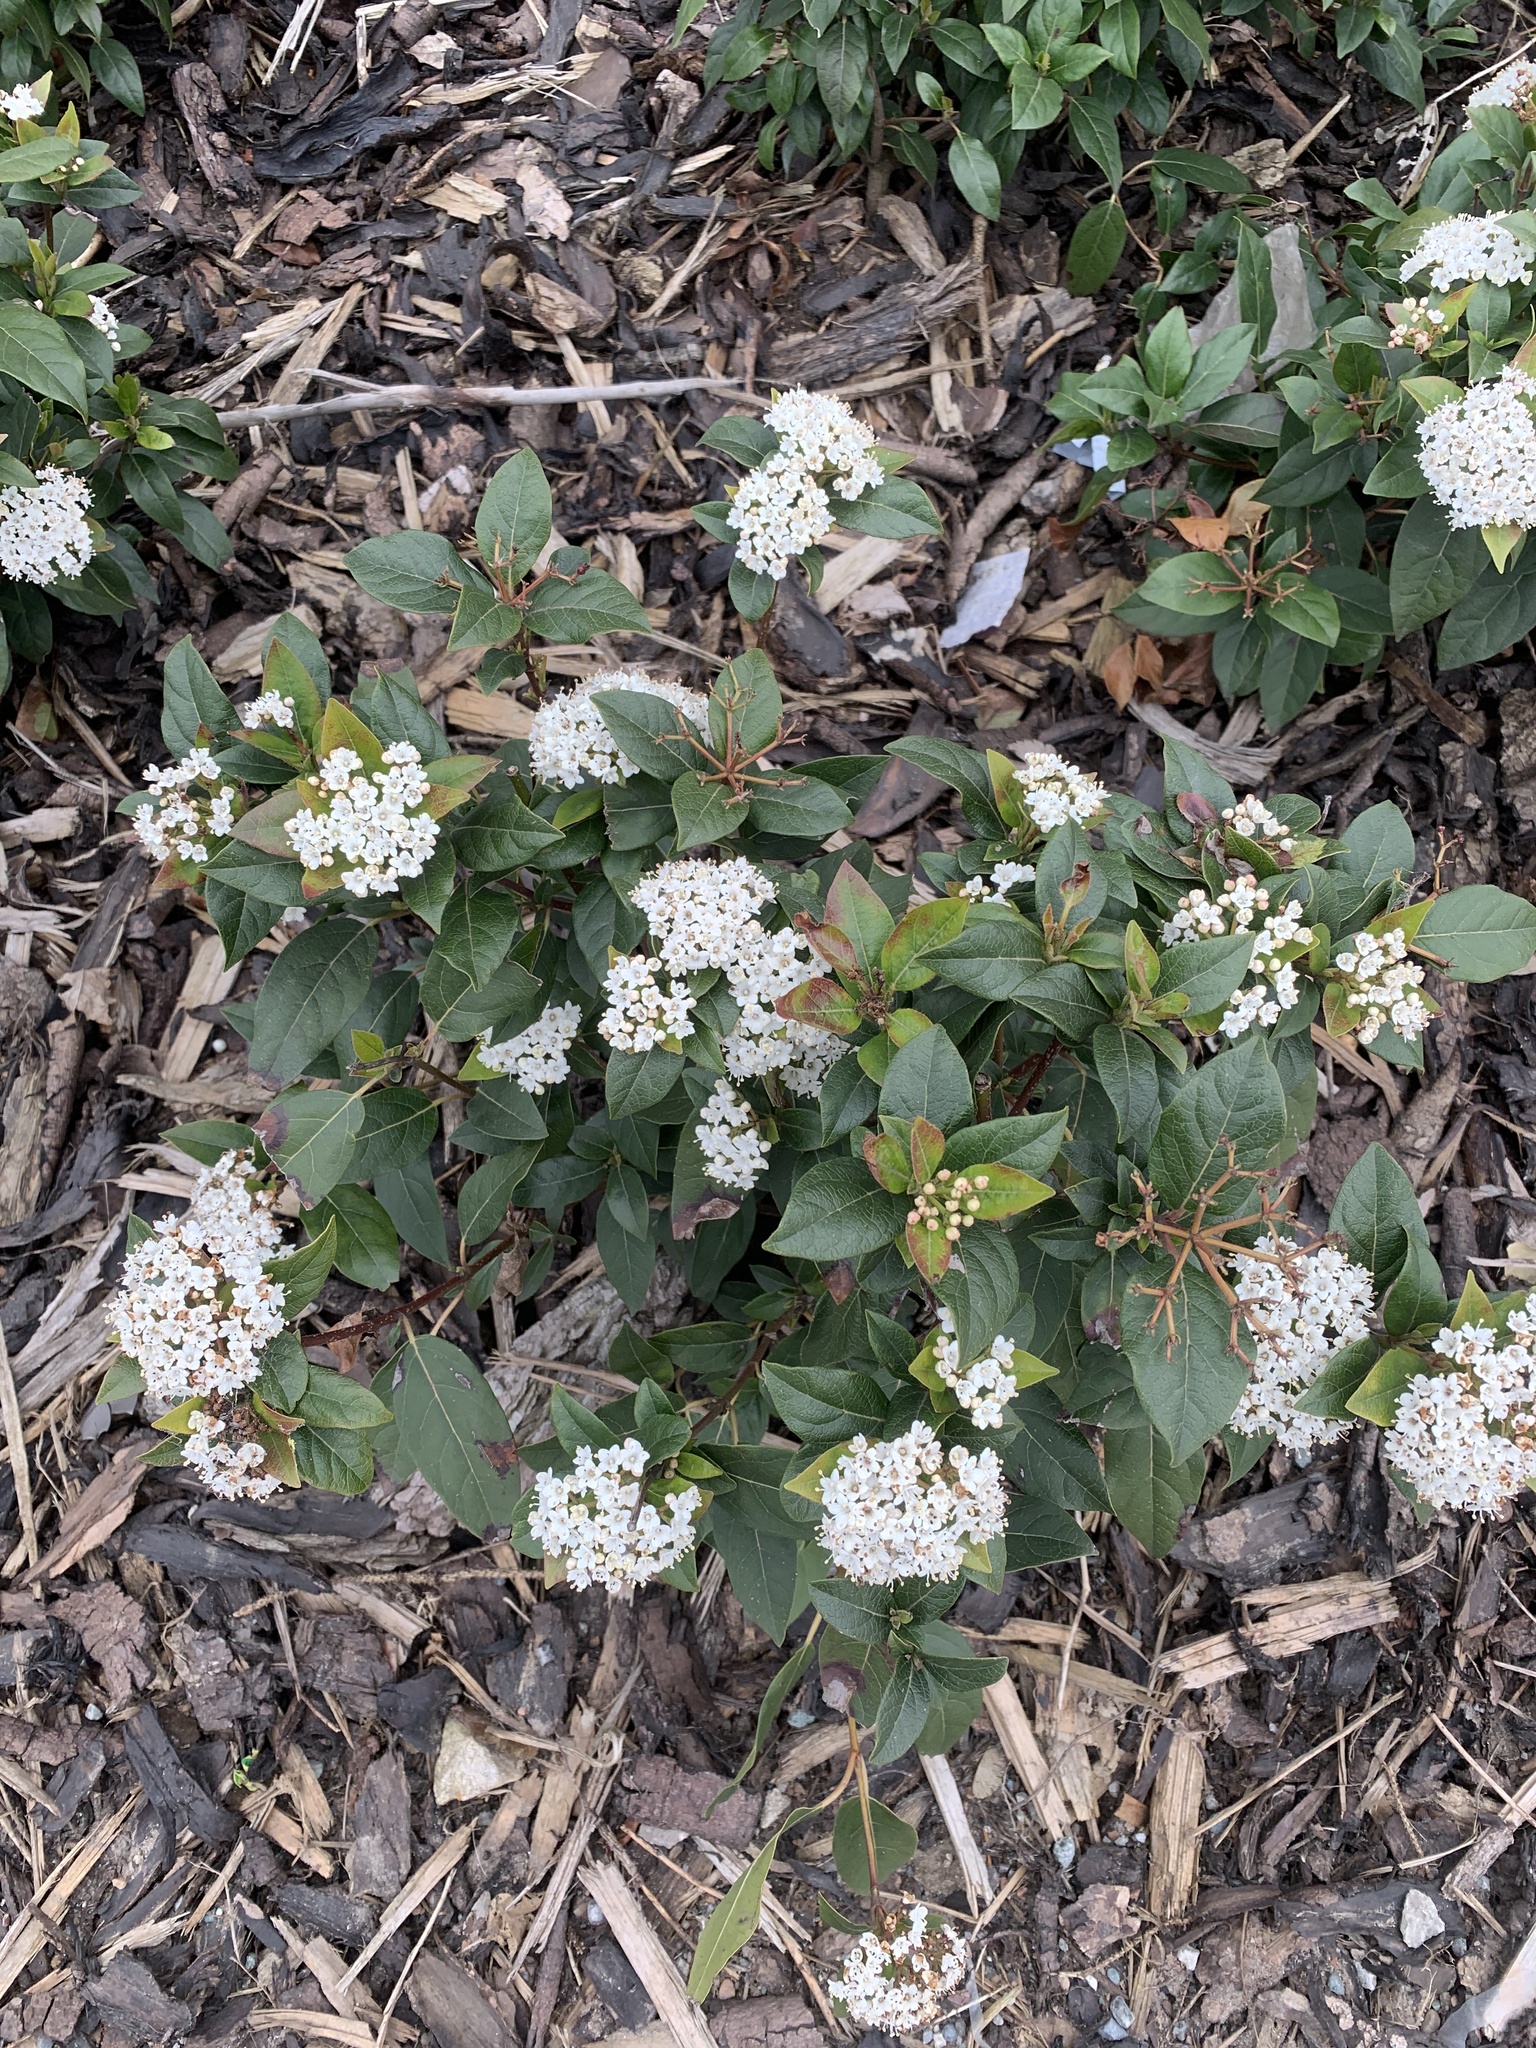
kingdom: Plantae
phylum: Tracheophyta
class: Magnoliopsida
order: Dipsacales
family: Viburnaceae
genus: Viburnum
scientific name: Viburnum tinus
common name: Laurustinus
